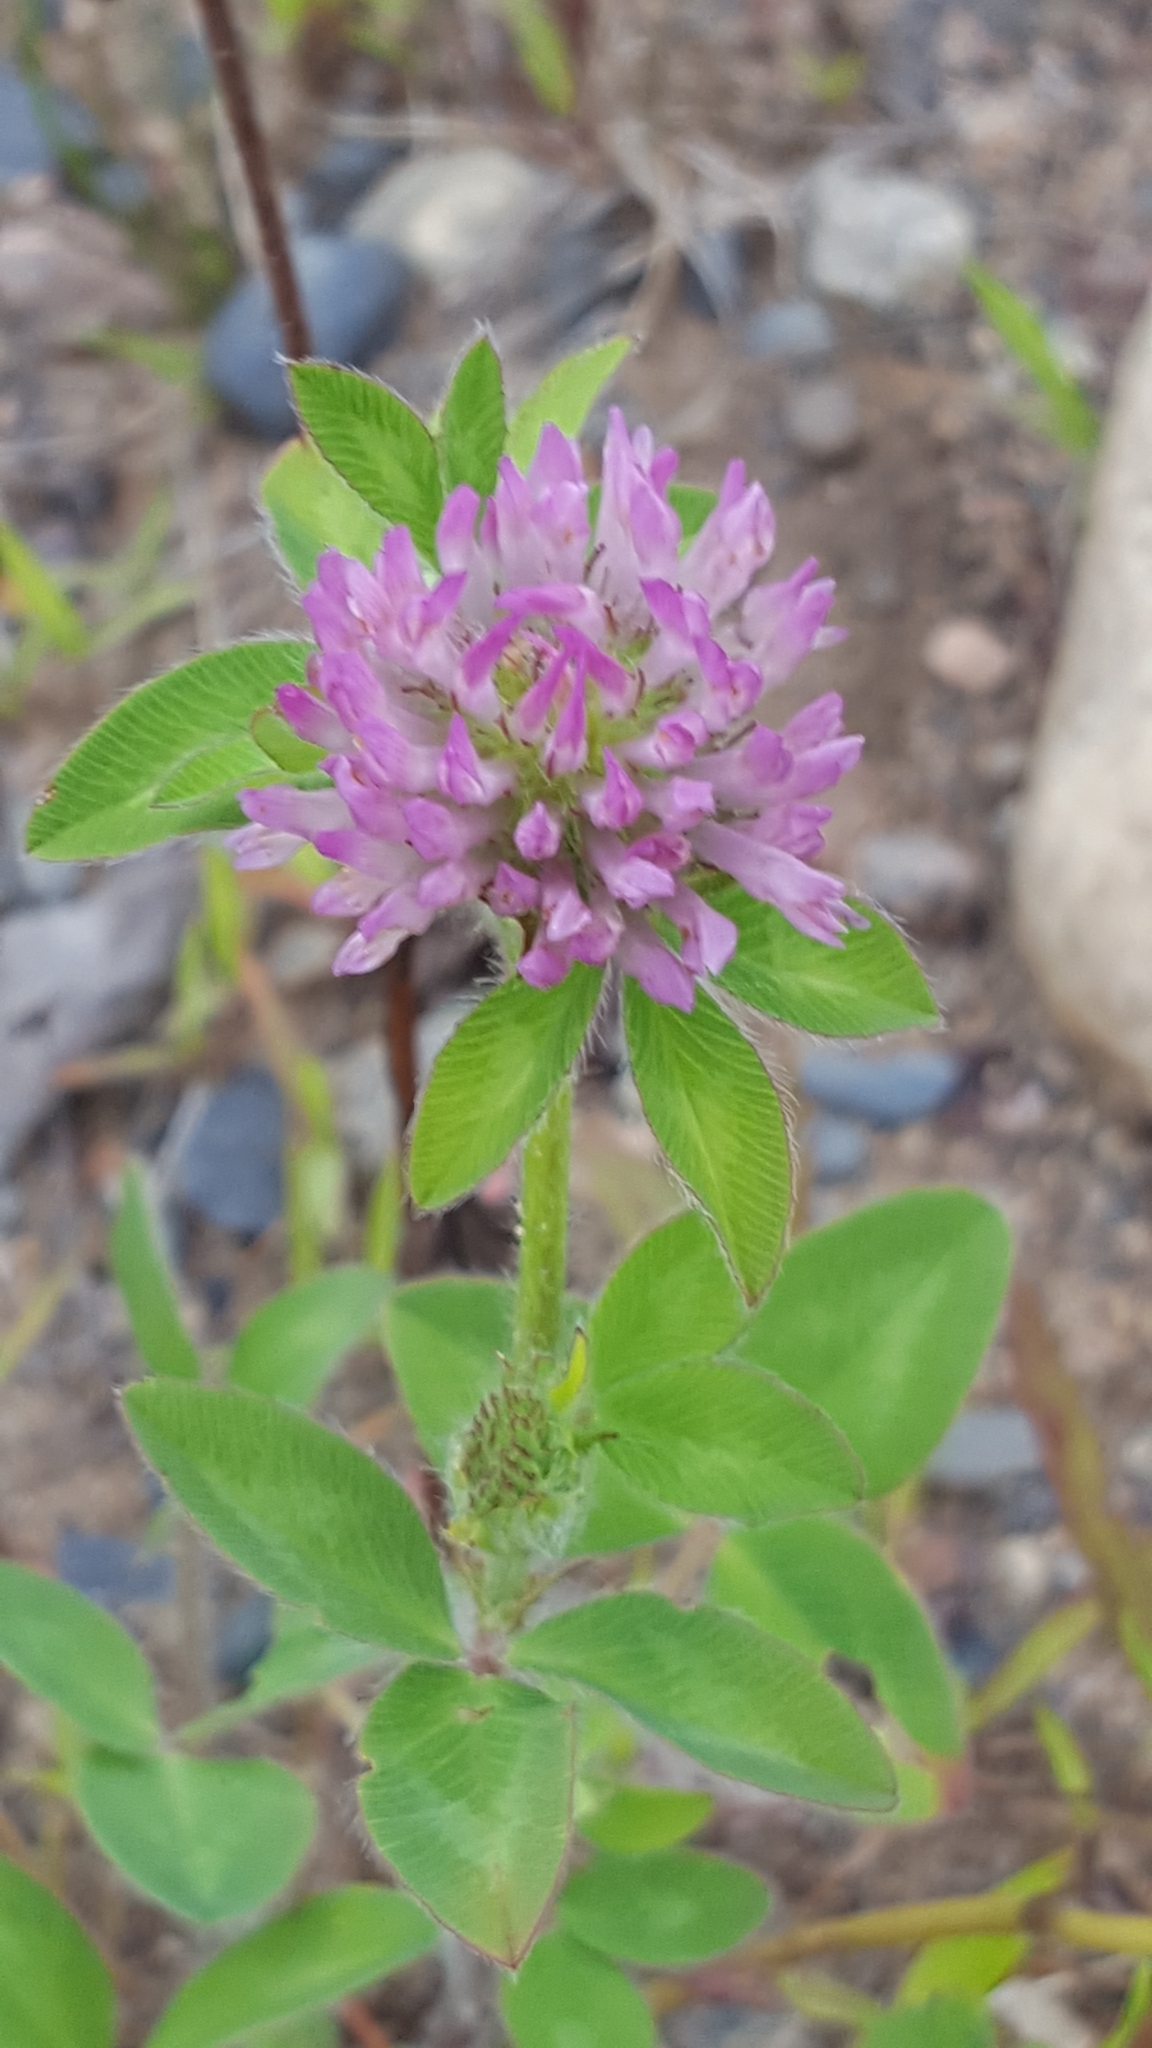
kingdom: Plantae
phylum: Tracheophyta
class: Magnoliopsida
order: Fabales
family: Fabaceae
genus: Trifolium
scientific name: Trifolium pratense
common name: Red clover
